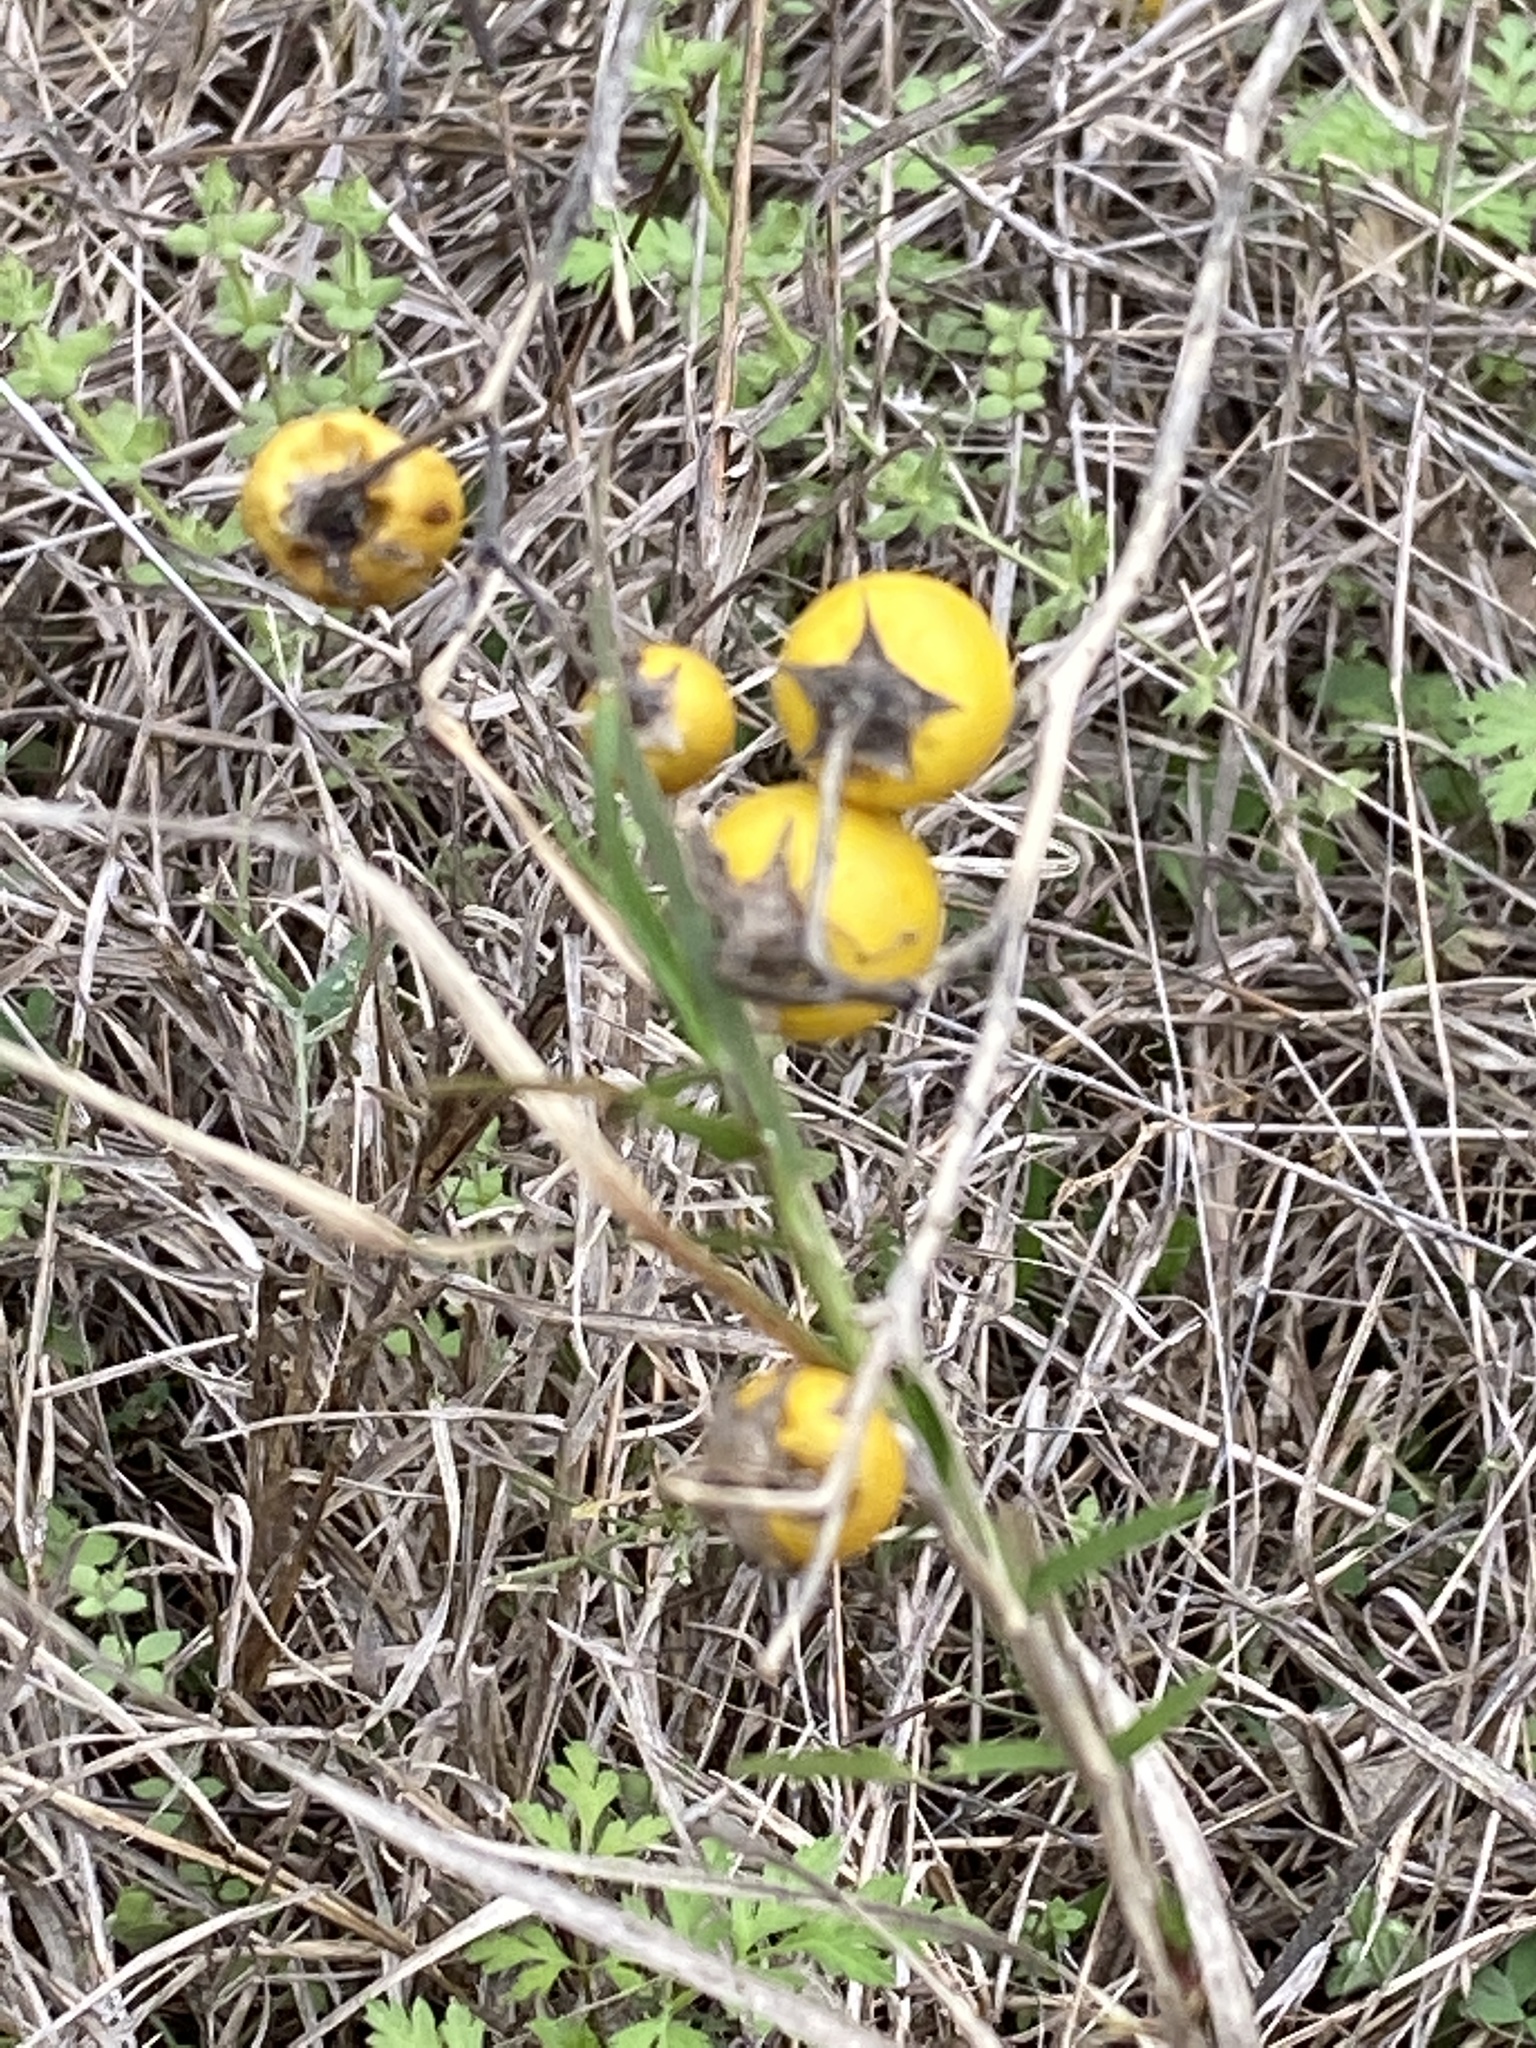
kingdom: Plantae
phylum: Tracheophyta
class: Magnoliopsida
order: Solanales
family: Solanaceae
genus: Solanum
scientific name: Solanum elaeagnifolium
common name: Silverleaf nightshade
